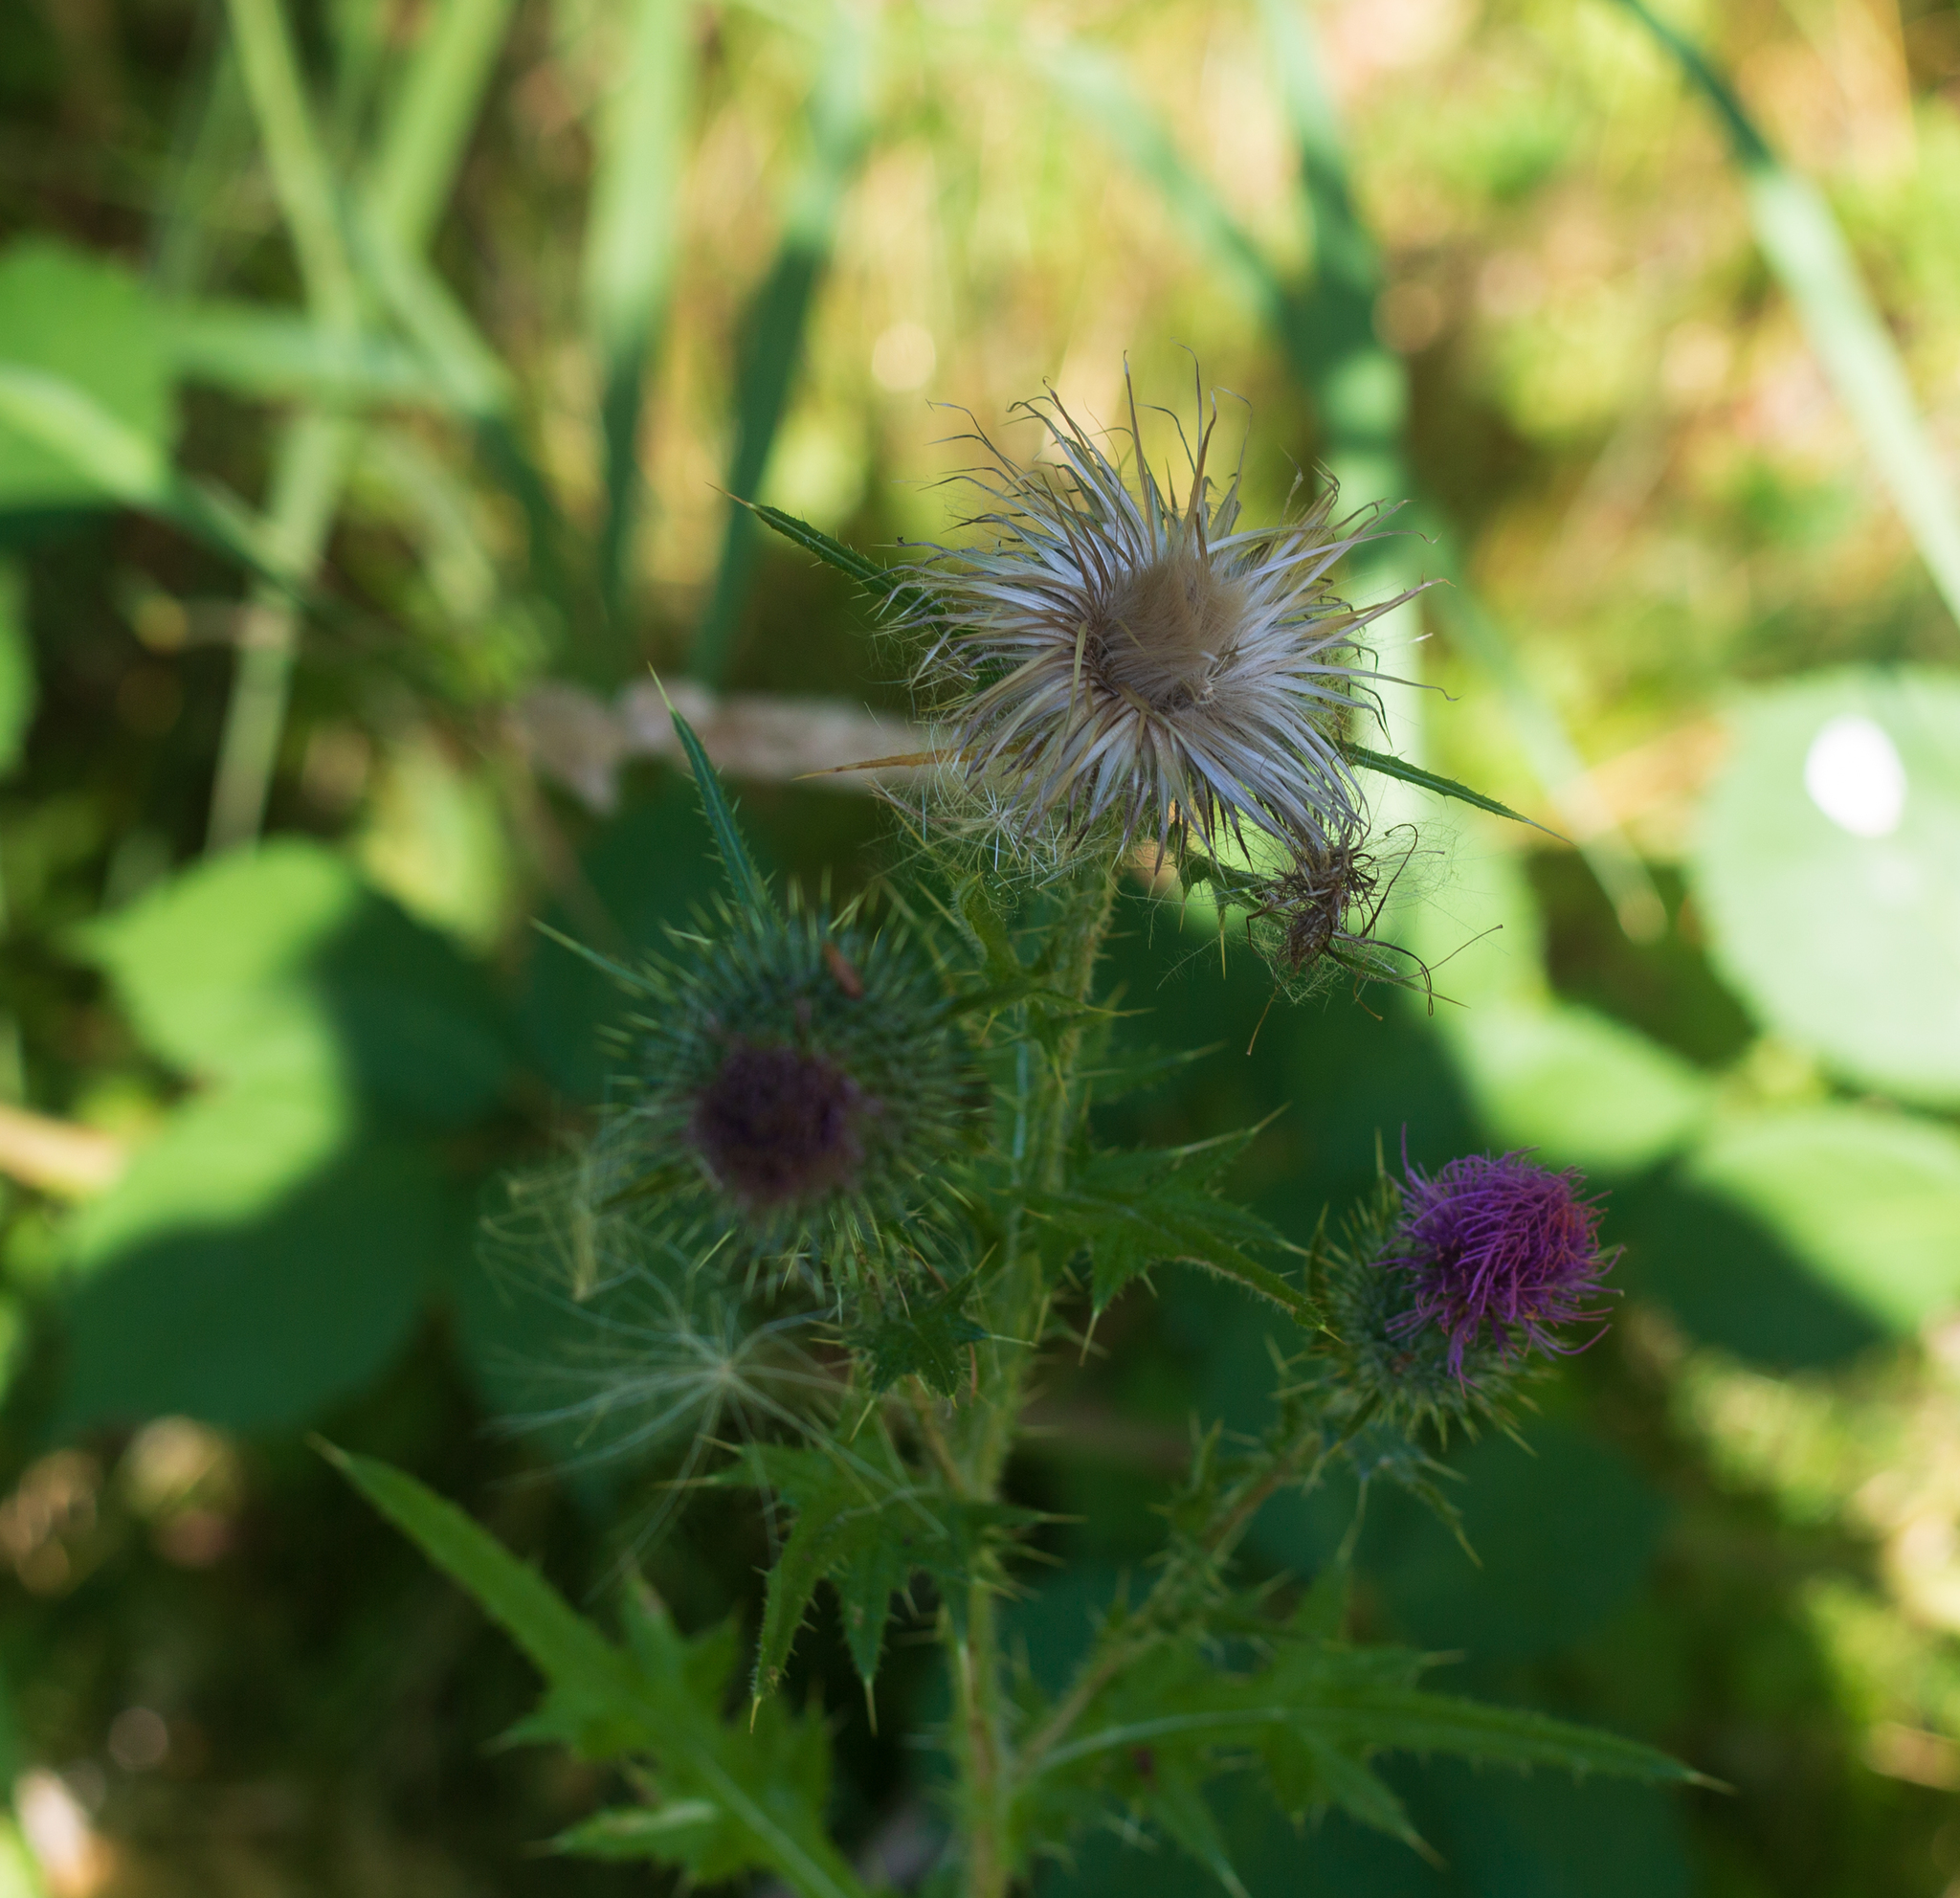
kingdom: Plantae
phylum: Tracheophyta
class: Magnoliopsida
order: Asterales
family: Asteraceae
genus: Cirsium
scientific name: Cirsium vulgare
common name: Bull thistle
